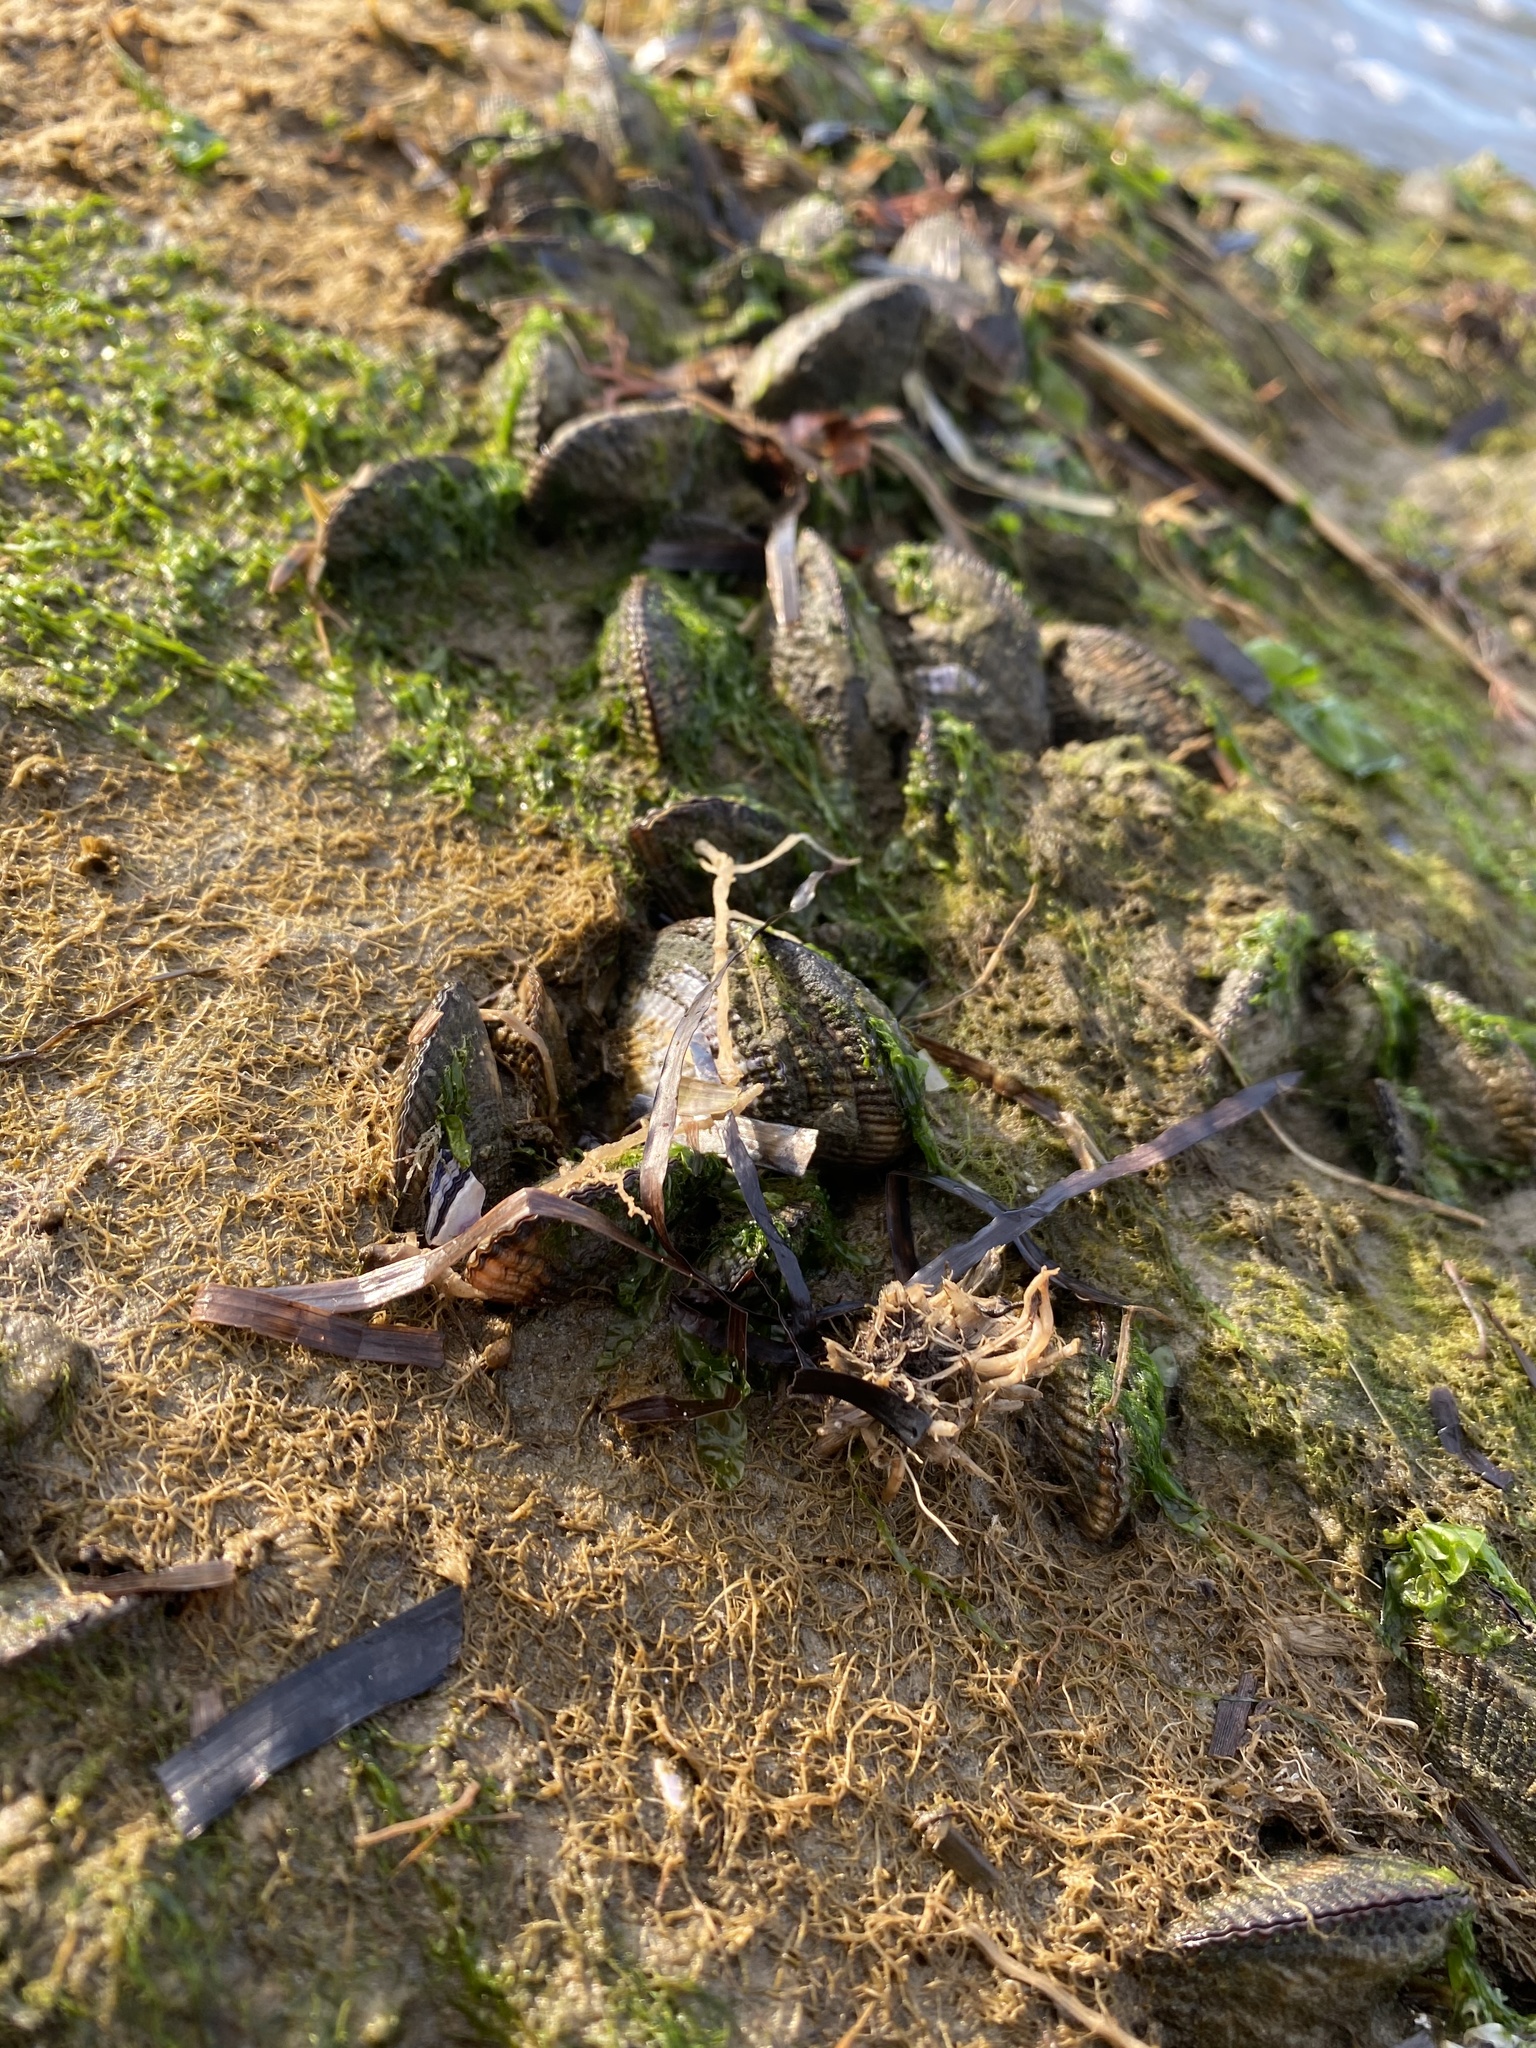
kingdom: Animalia
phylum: Mollusca
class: Bivalvia
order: Mytilida
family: Mytilidae
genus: Geukensia
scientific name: Geukensia demissa
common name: Ribbed mussel
